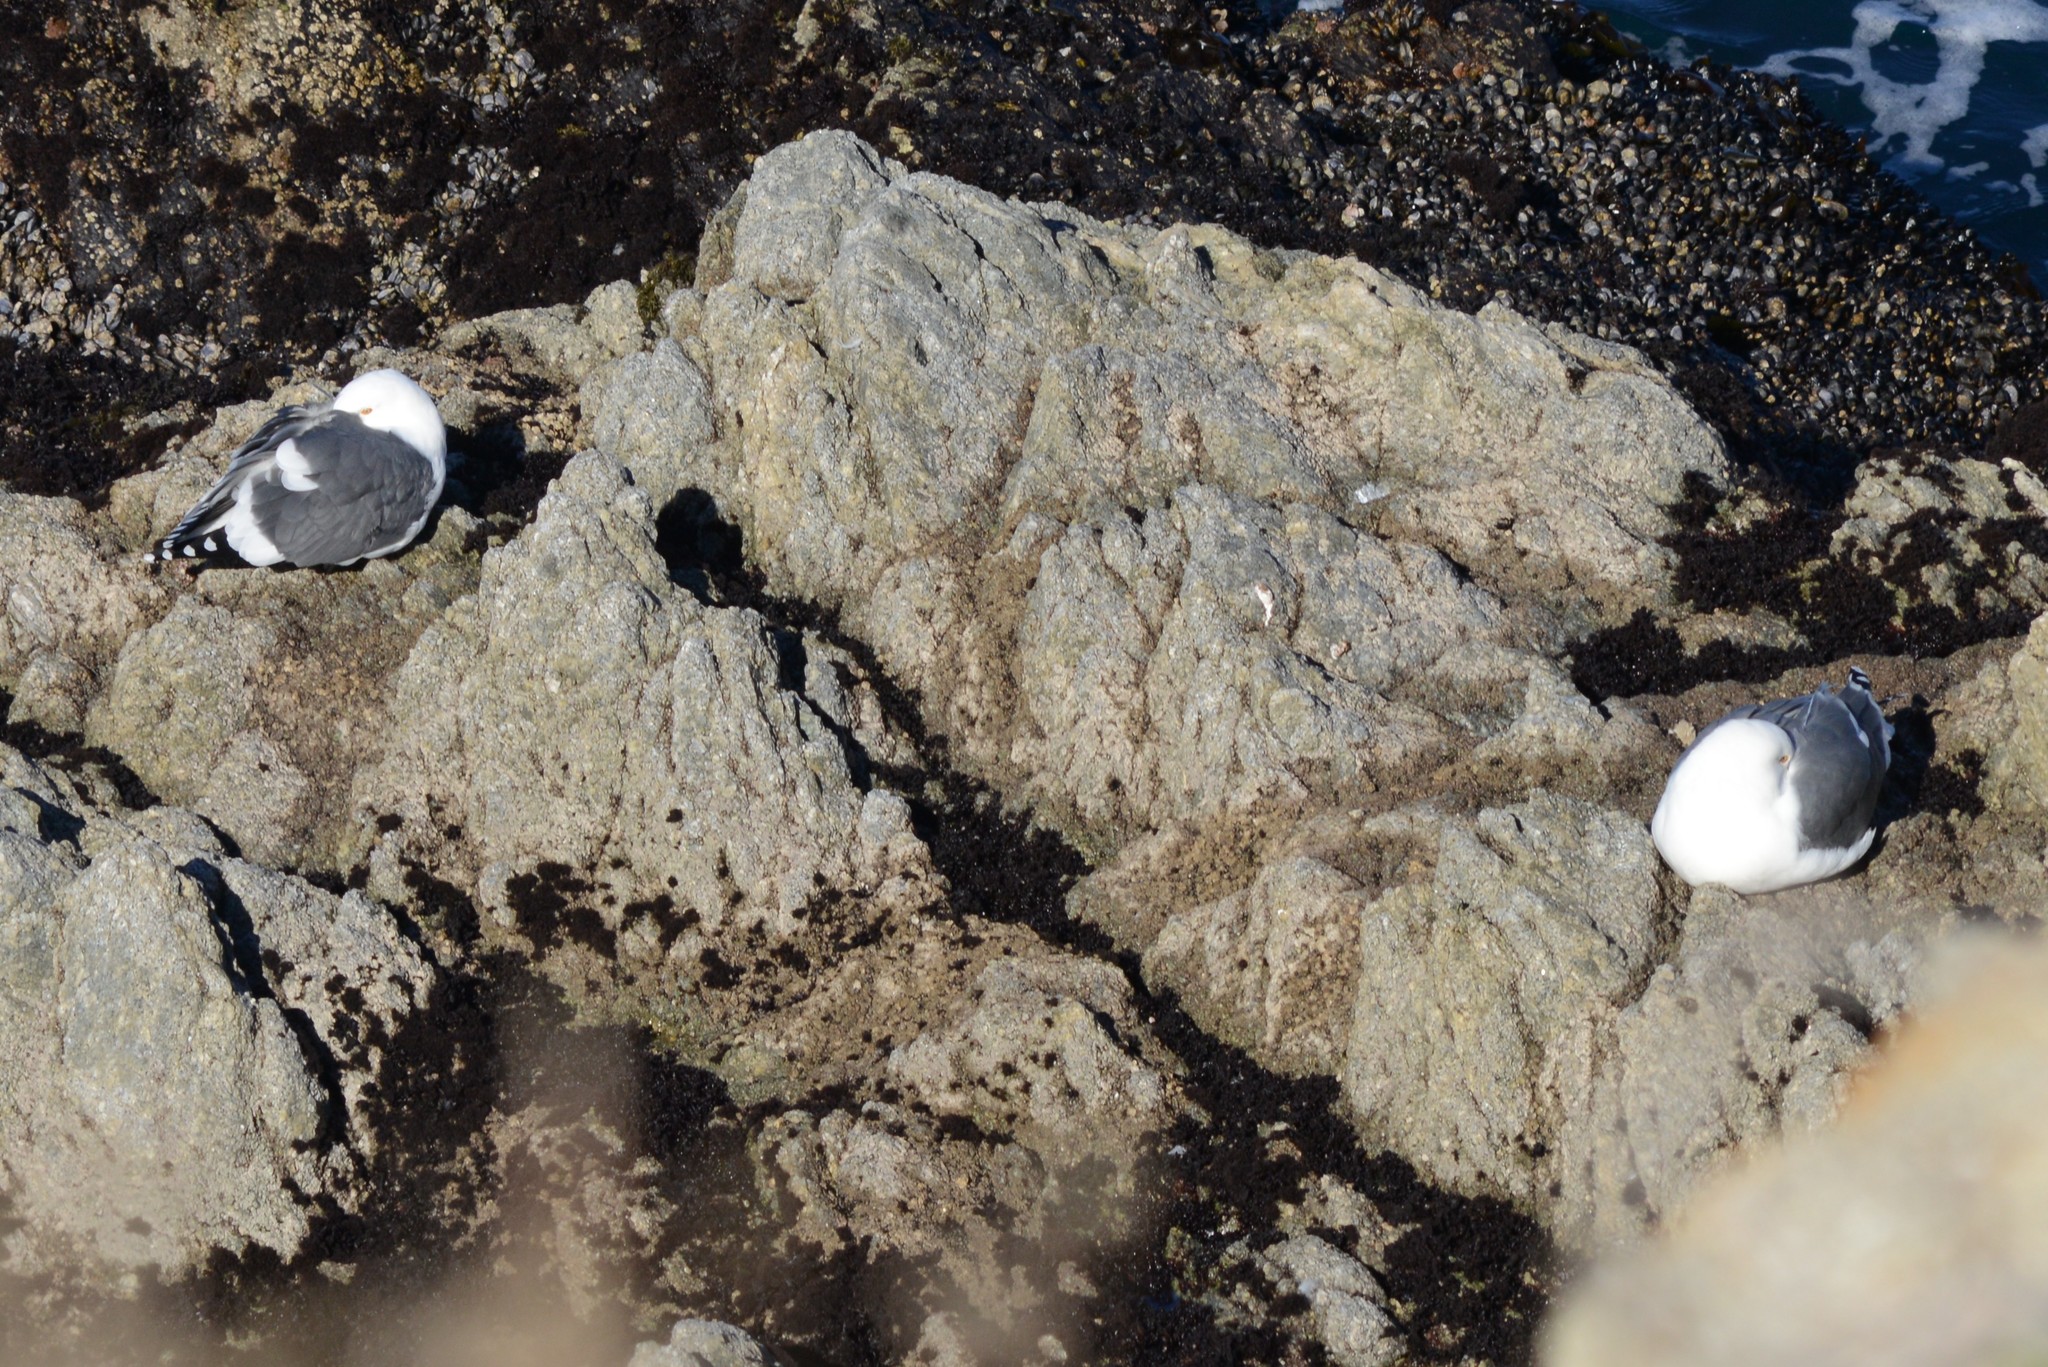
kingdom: Animalia
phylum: Chordata
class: Aves
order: Charadriiformes
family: Laridae
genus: Larus
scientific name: Larus occidentalis
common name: Western gull
